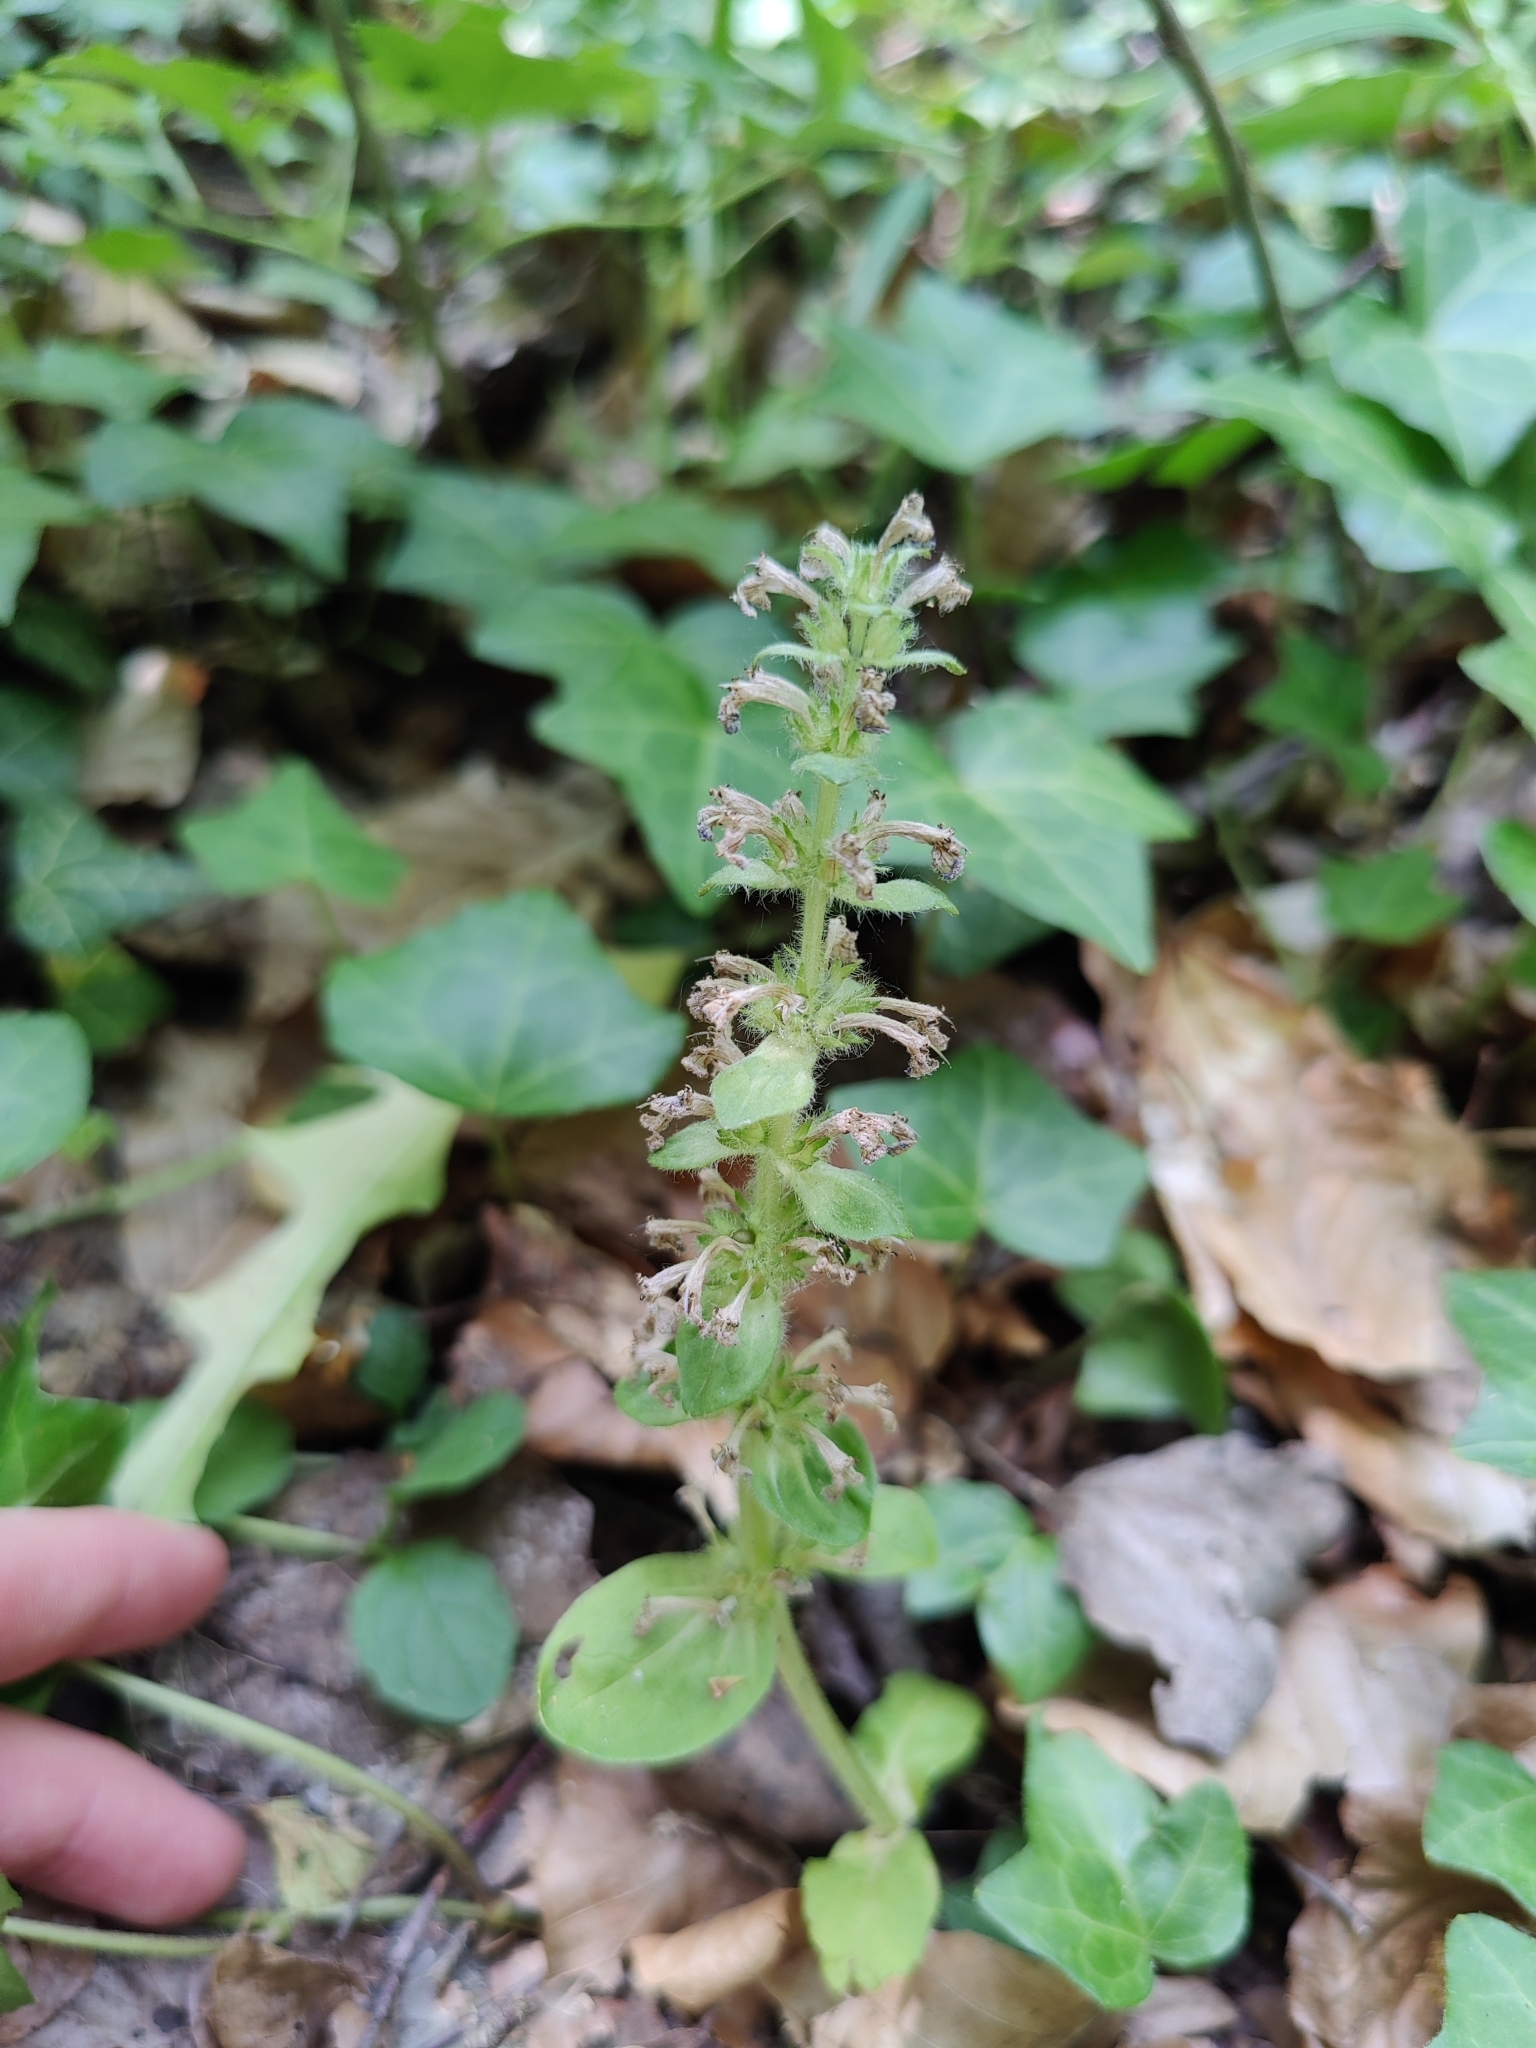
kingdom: Plantae
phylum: Tracheophyta
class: Magnoliopsida
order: Lamiales
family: Lamiaceae
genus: Ajuga
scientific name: Ajuga reptans
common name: Bugle
